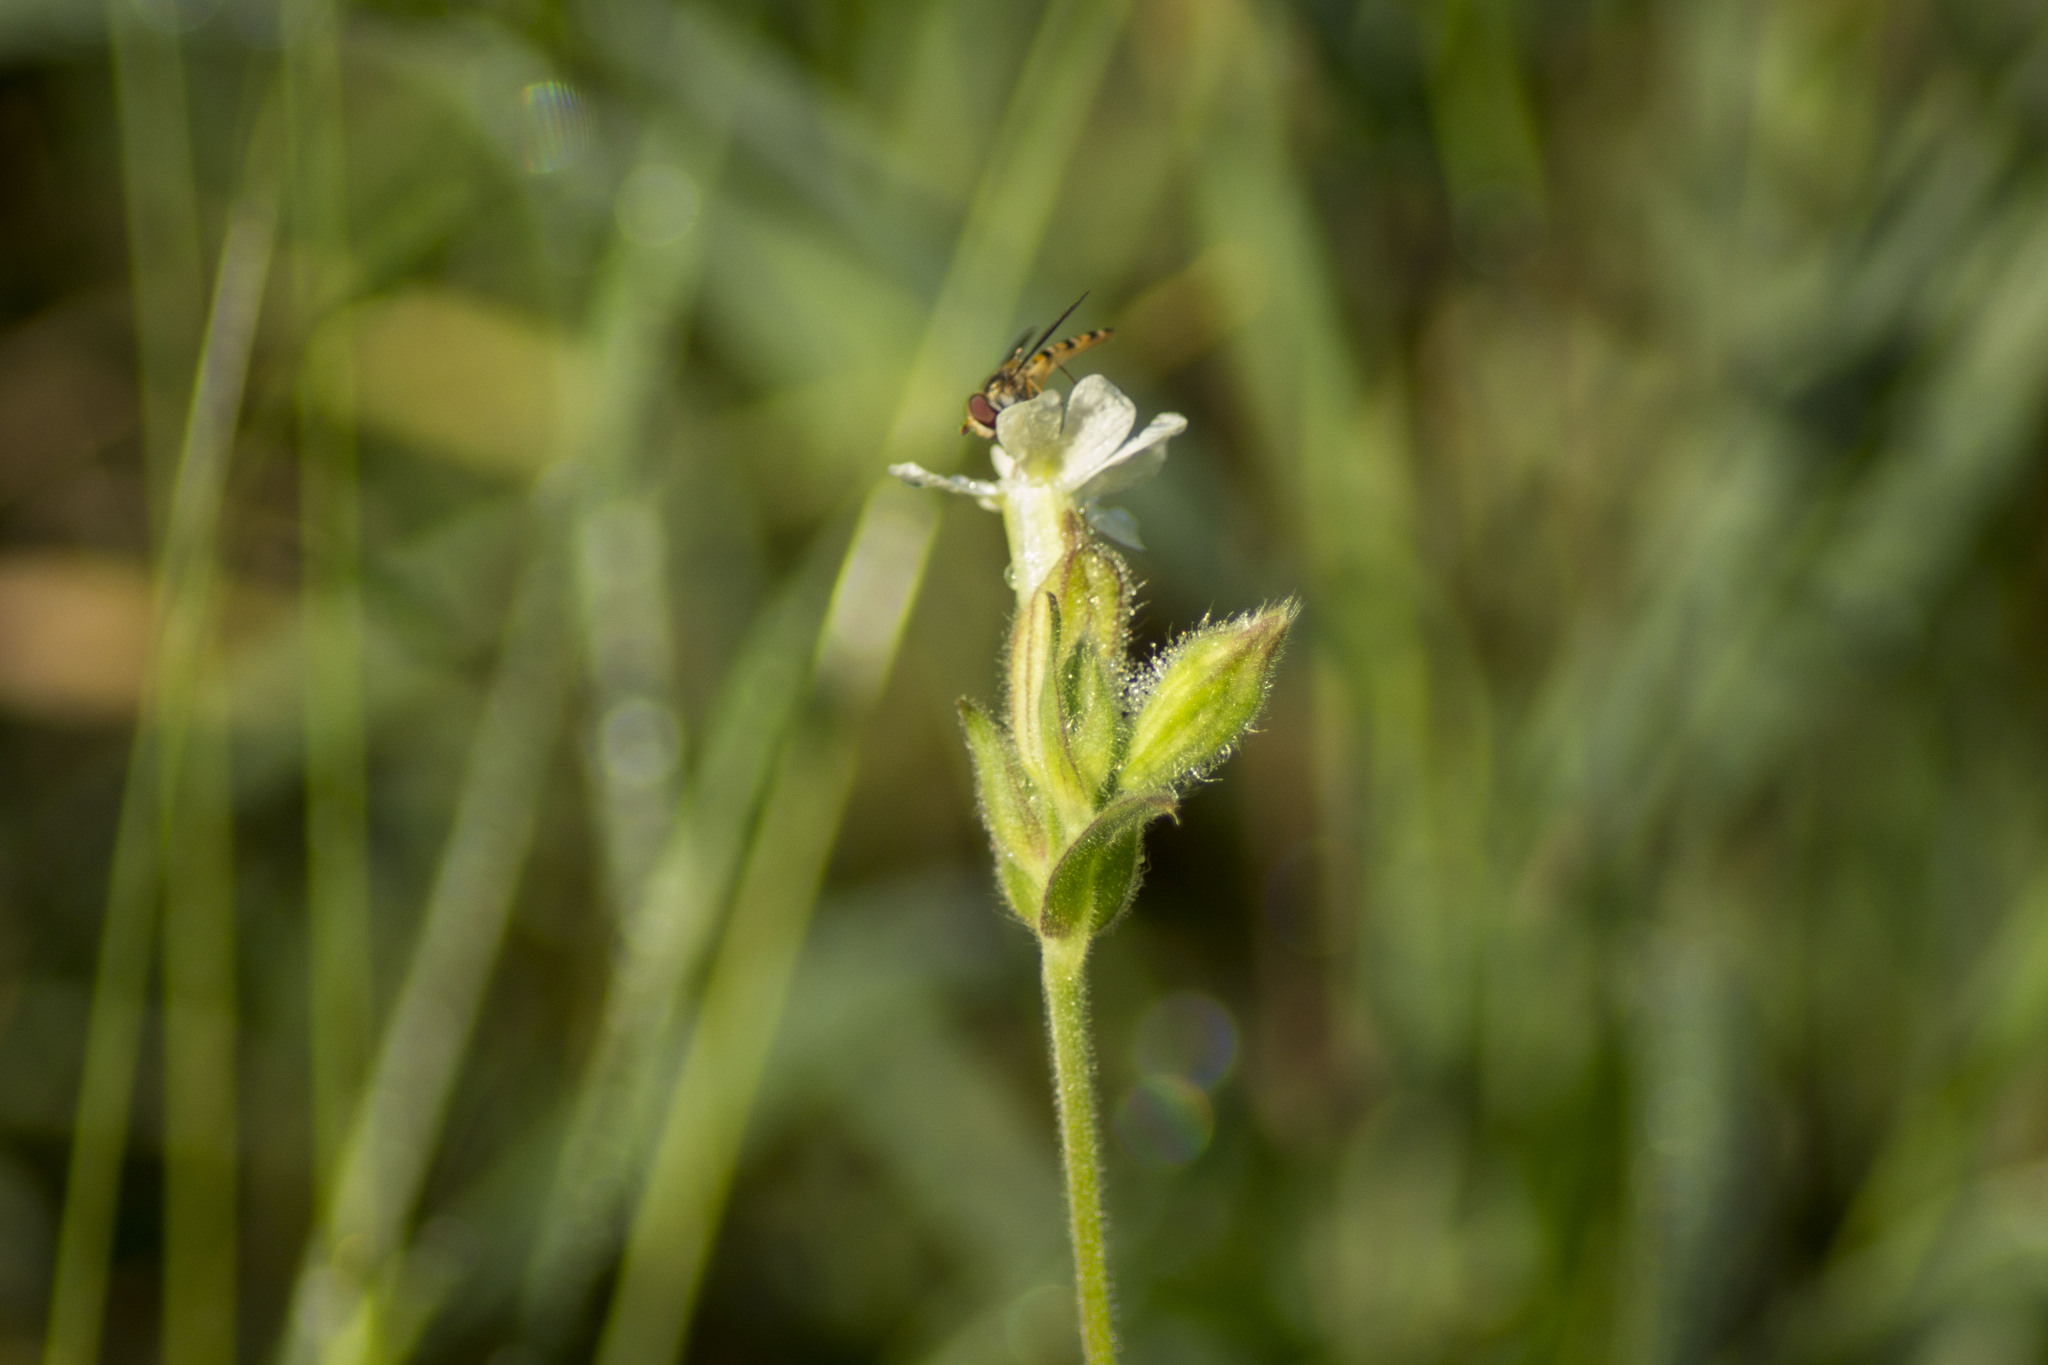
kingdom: Plantae
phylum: Tracheophyta
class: Magnoliopsida
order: Caryophyllales
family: Caryophyllaceae
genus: Silene
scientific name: Silene latifolia
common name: White campion
